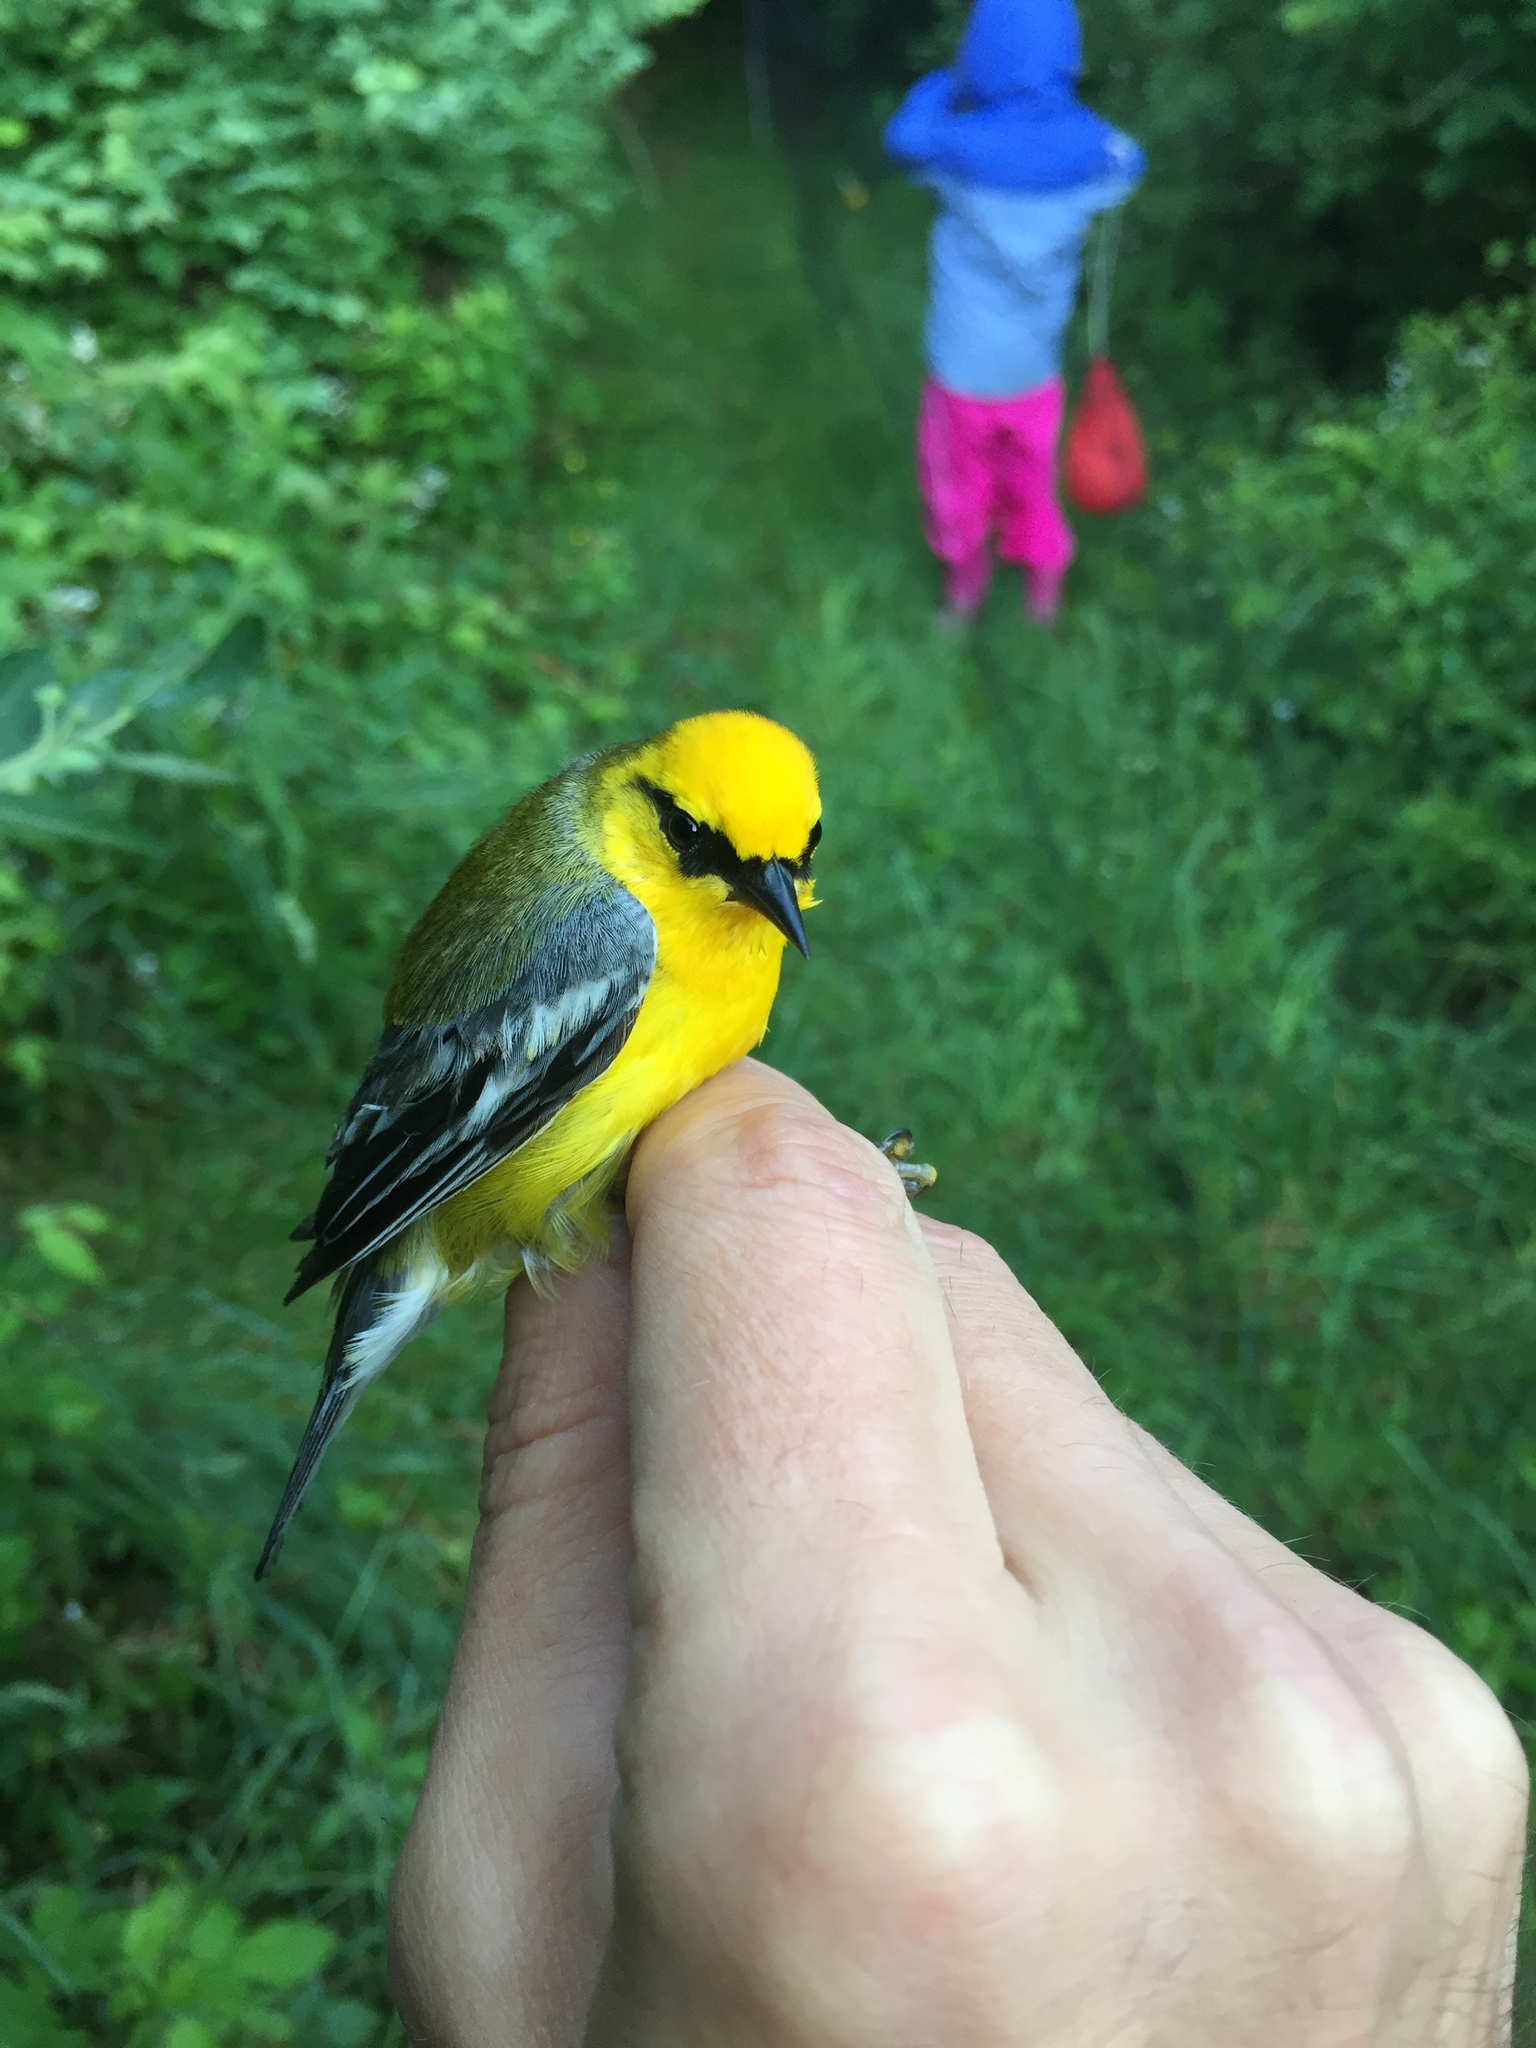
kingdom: Animalia
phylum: Chordata
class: Aves
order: Passeriformes
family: Parulidae
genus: Vermivora
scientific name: Vermivora cyanoptera
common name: Blue-winged warbler
